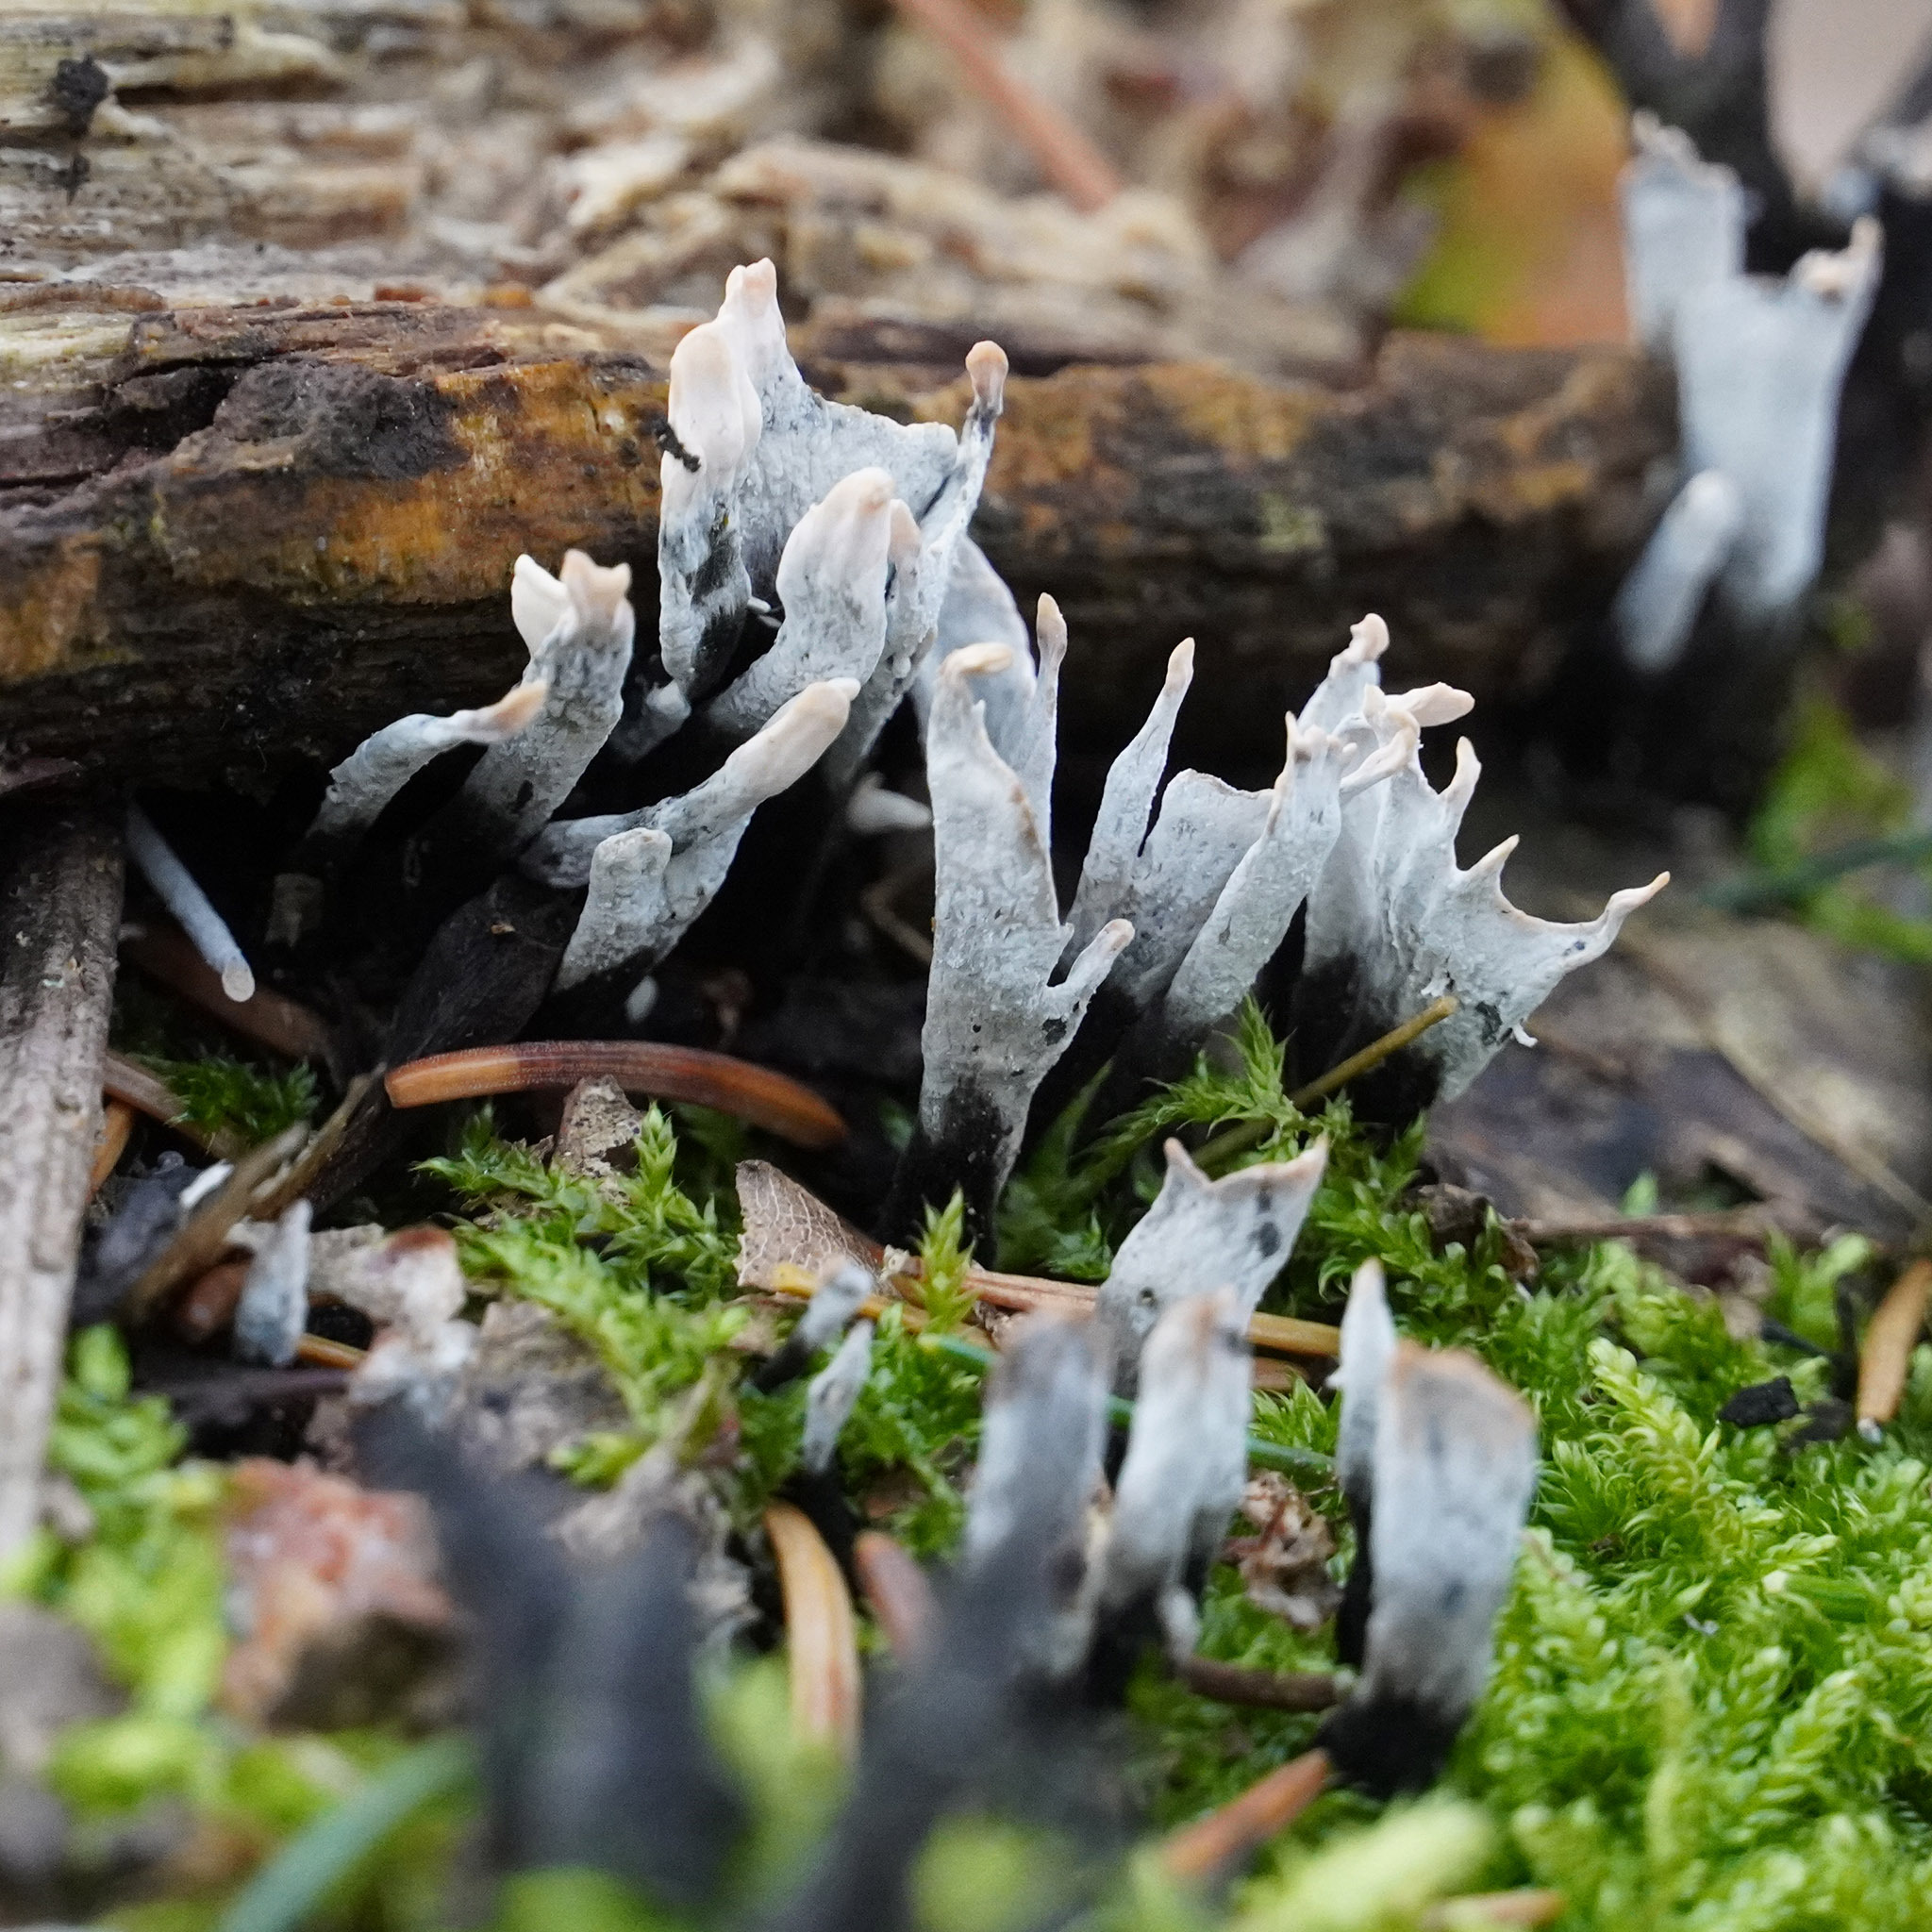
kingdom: Fungi
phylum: Ascomycota
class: Sordariomycetes
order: Xylariales
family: Xylariaceae
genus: Xylaria
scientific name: Xylaria hypoxylon
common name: Candle-snuff fungus
